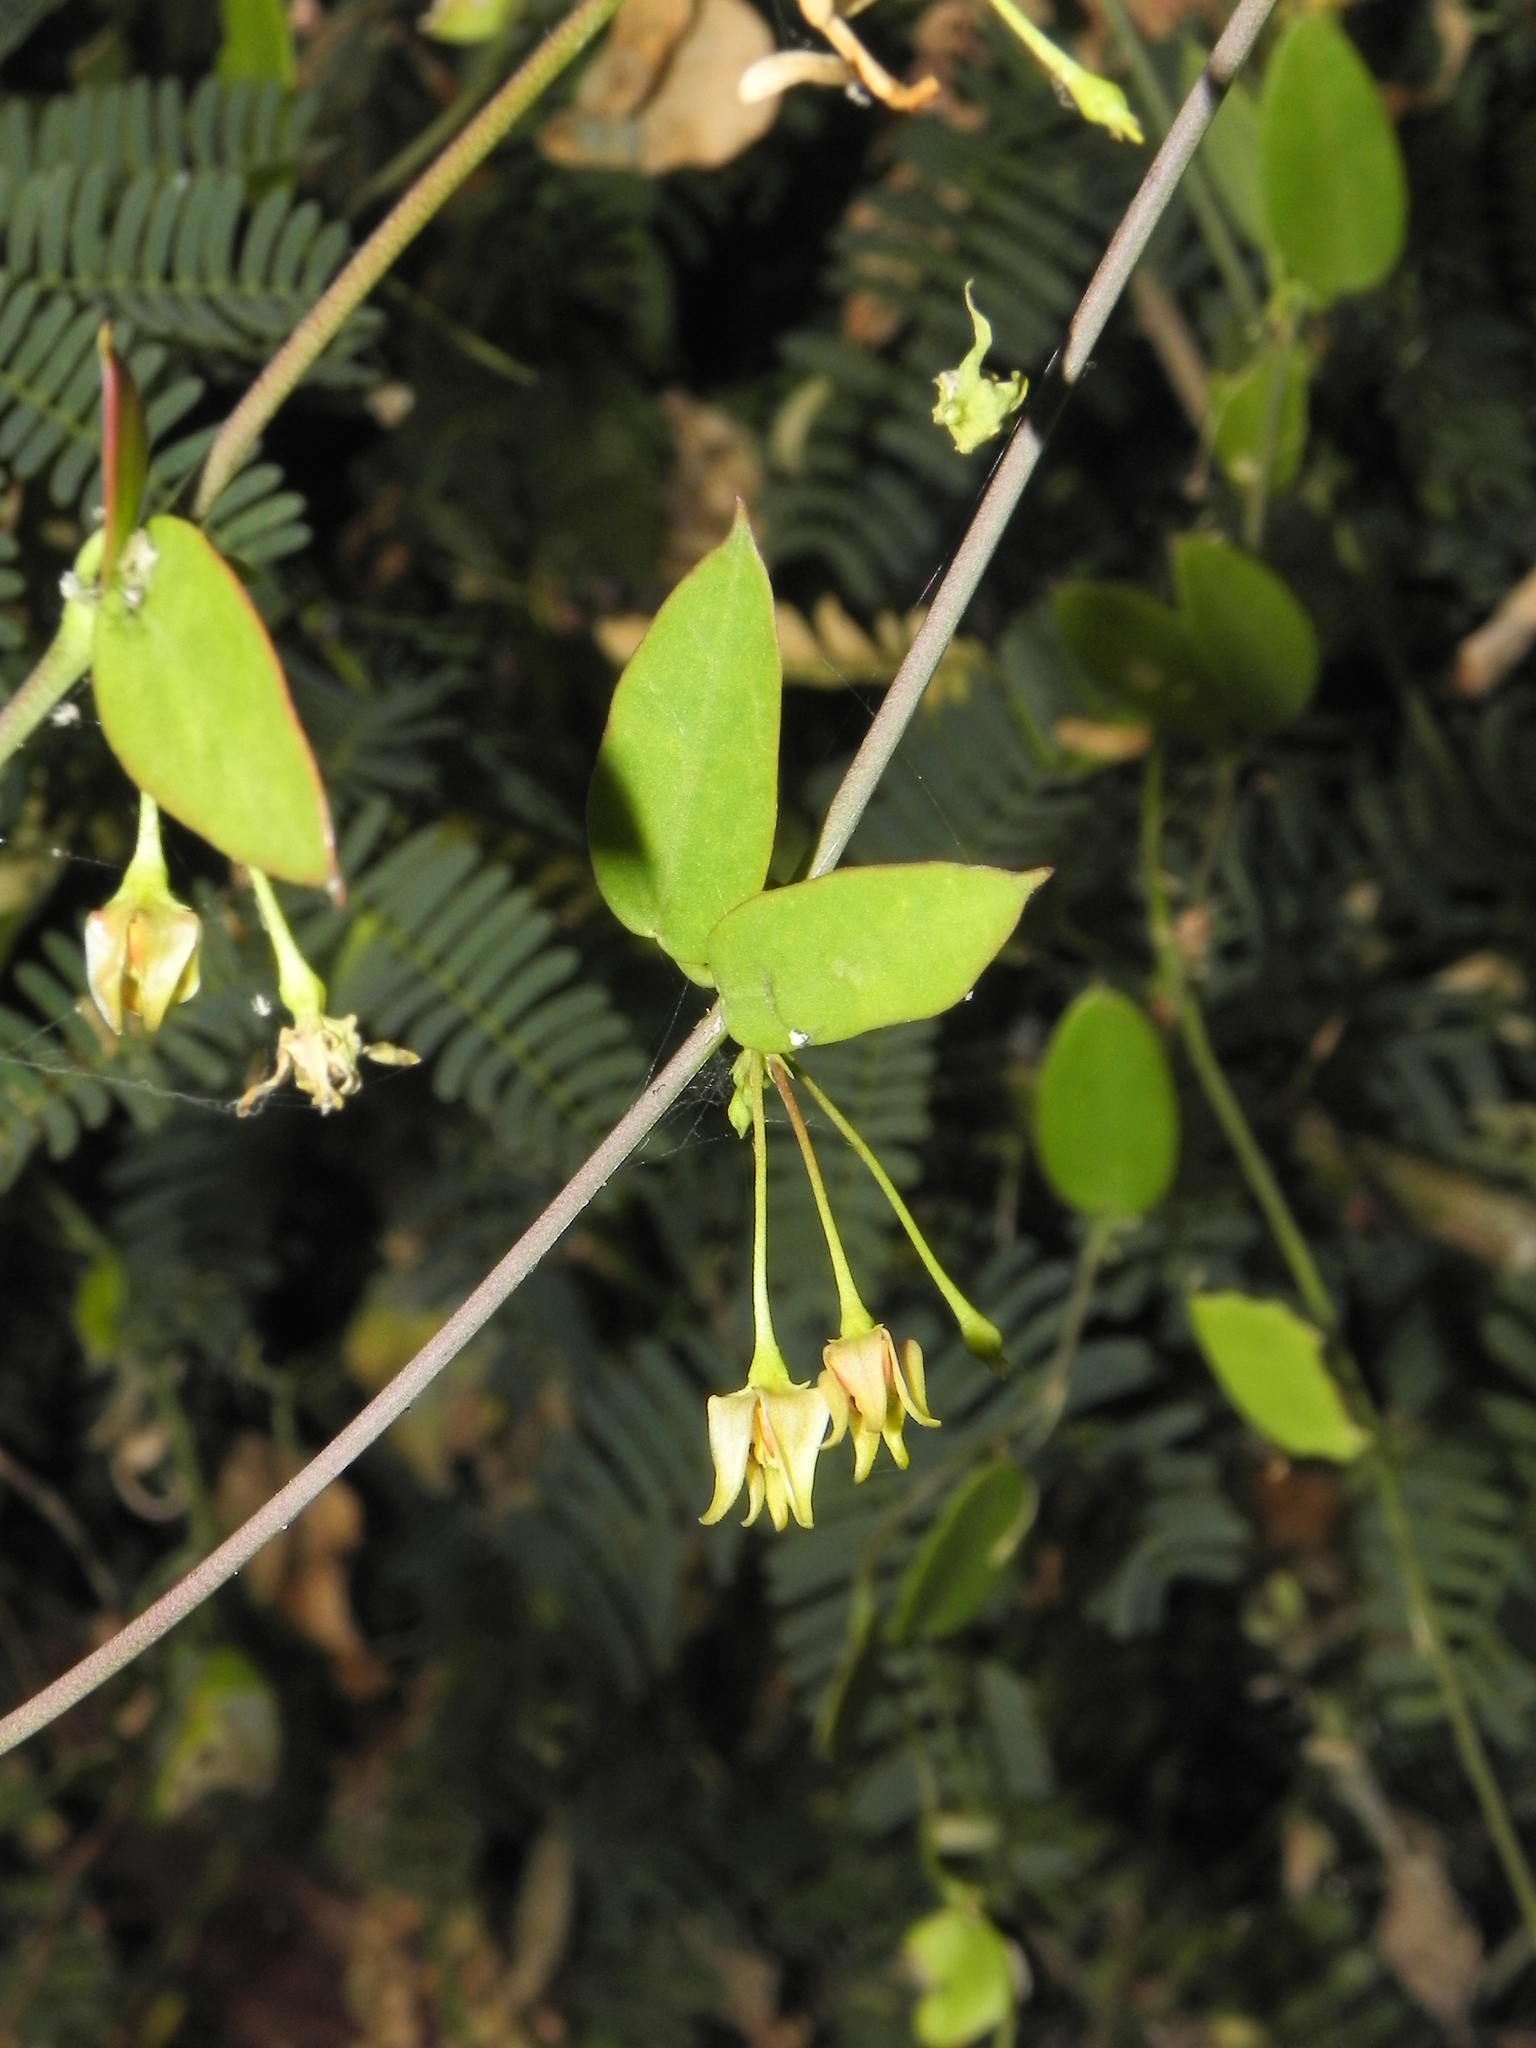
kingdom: Plantae
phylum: Tracheophyta
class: Magnoliopsida
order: Gentianales
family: Apocynaceae
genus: Pentatropis
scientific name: Pentatropis capensis
